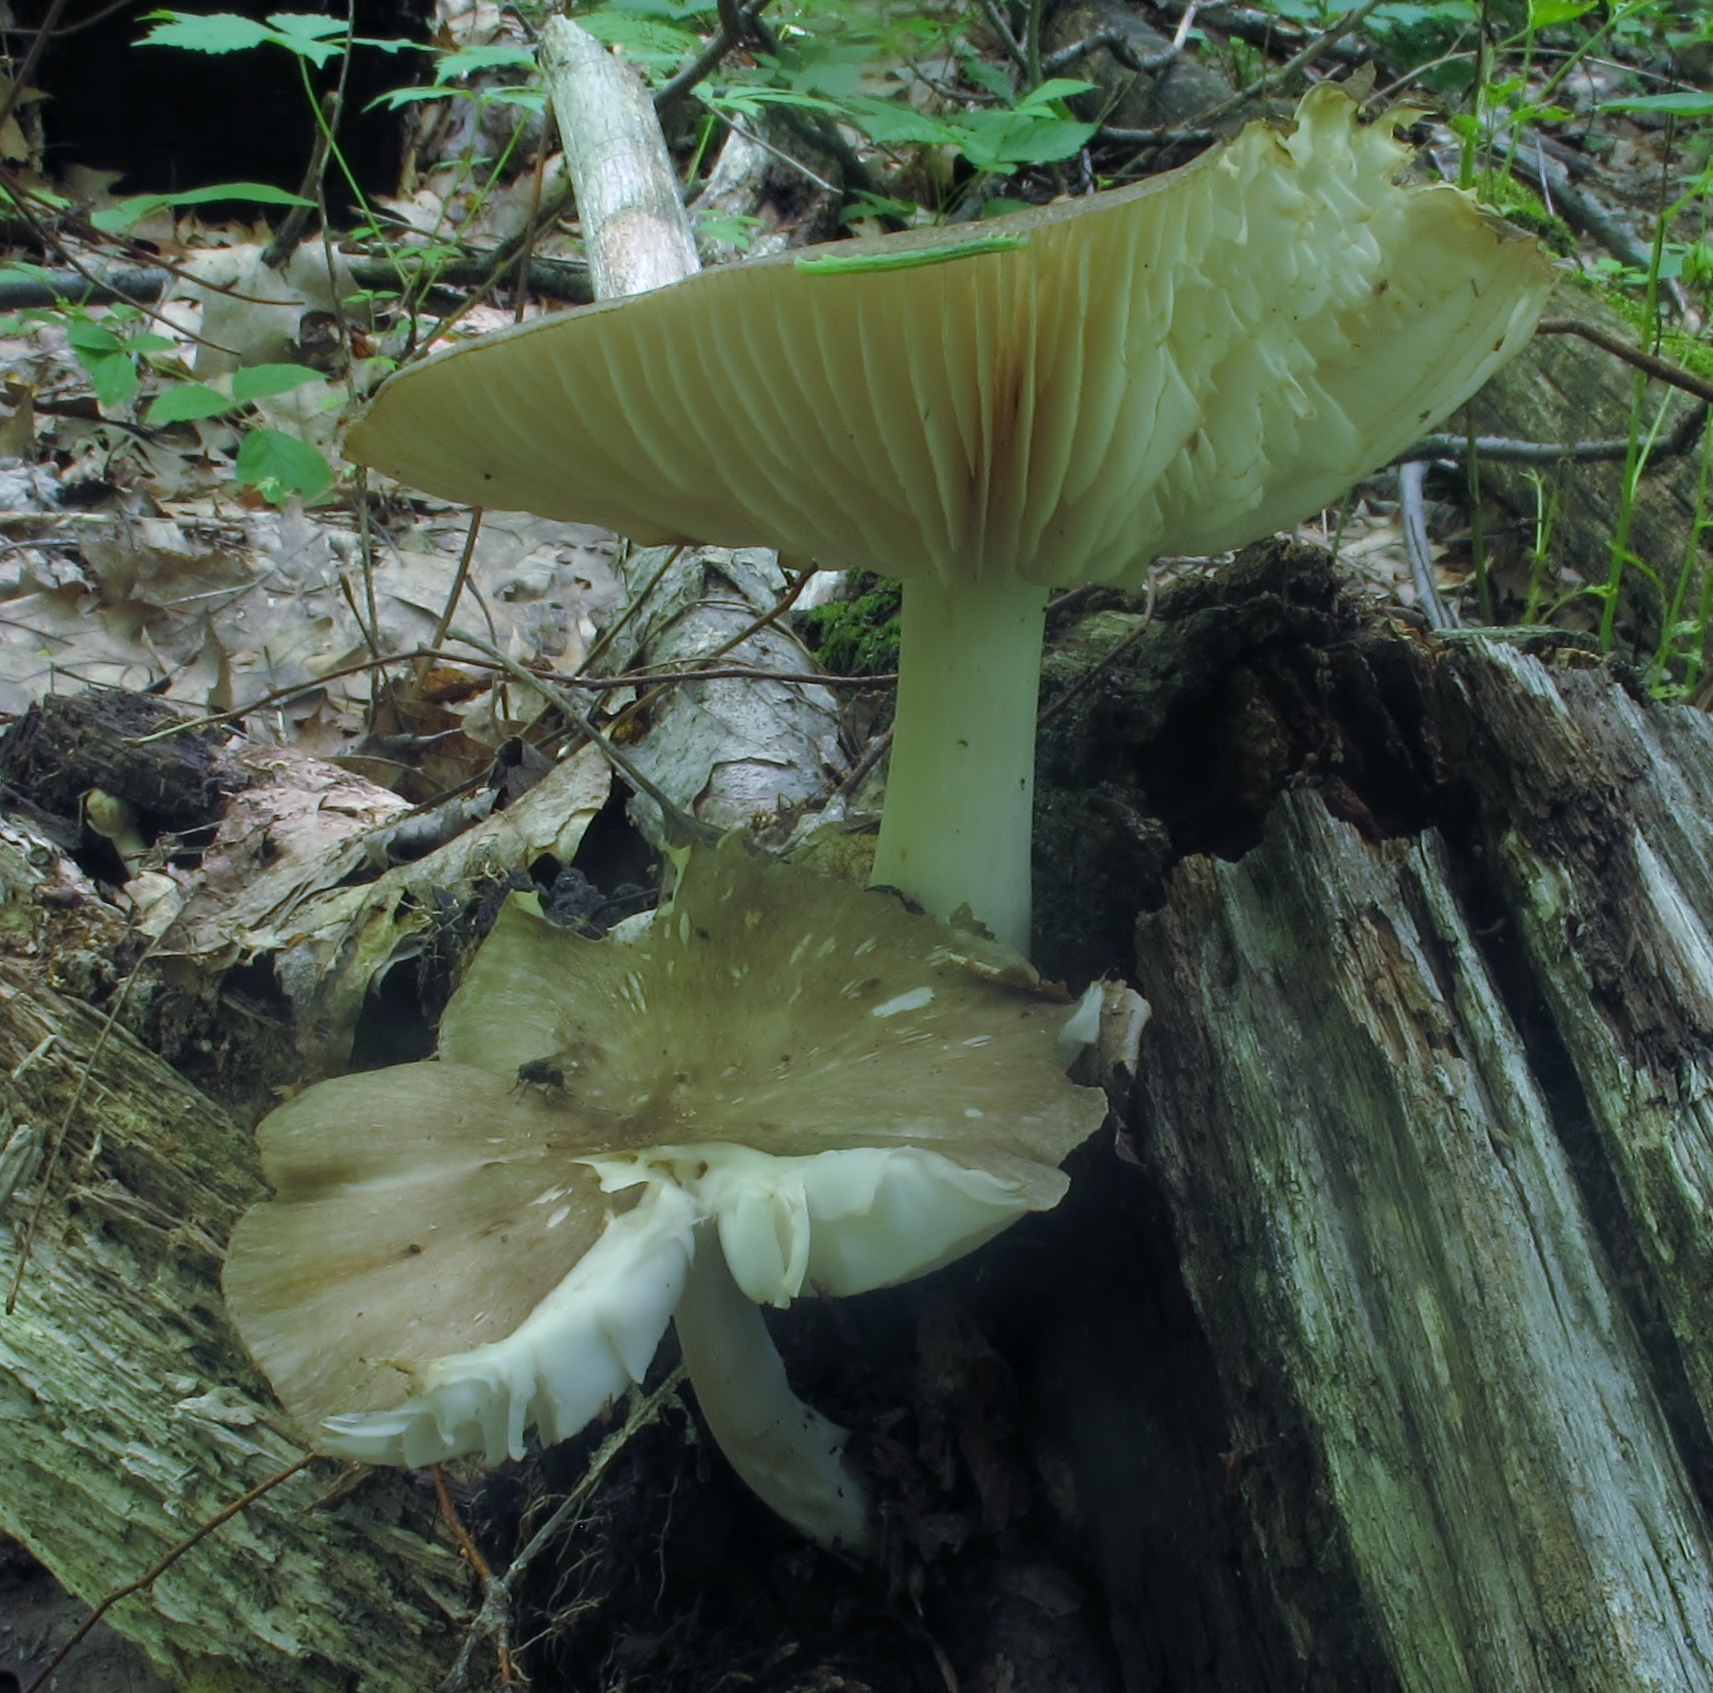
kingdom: Fungi
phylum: Basidiomycota
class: Agaricomycetes
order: Agaricales
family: Tricholomataceae
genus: Megacollybia
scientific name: Megacollybia rodmanii
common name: Eastern american platterful mushroom
